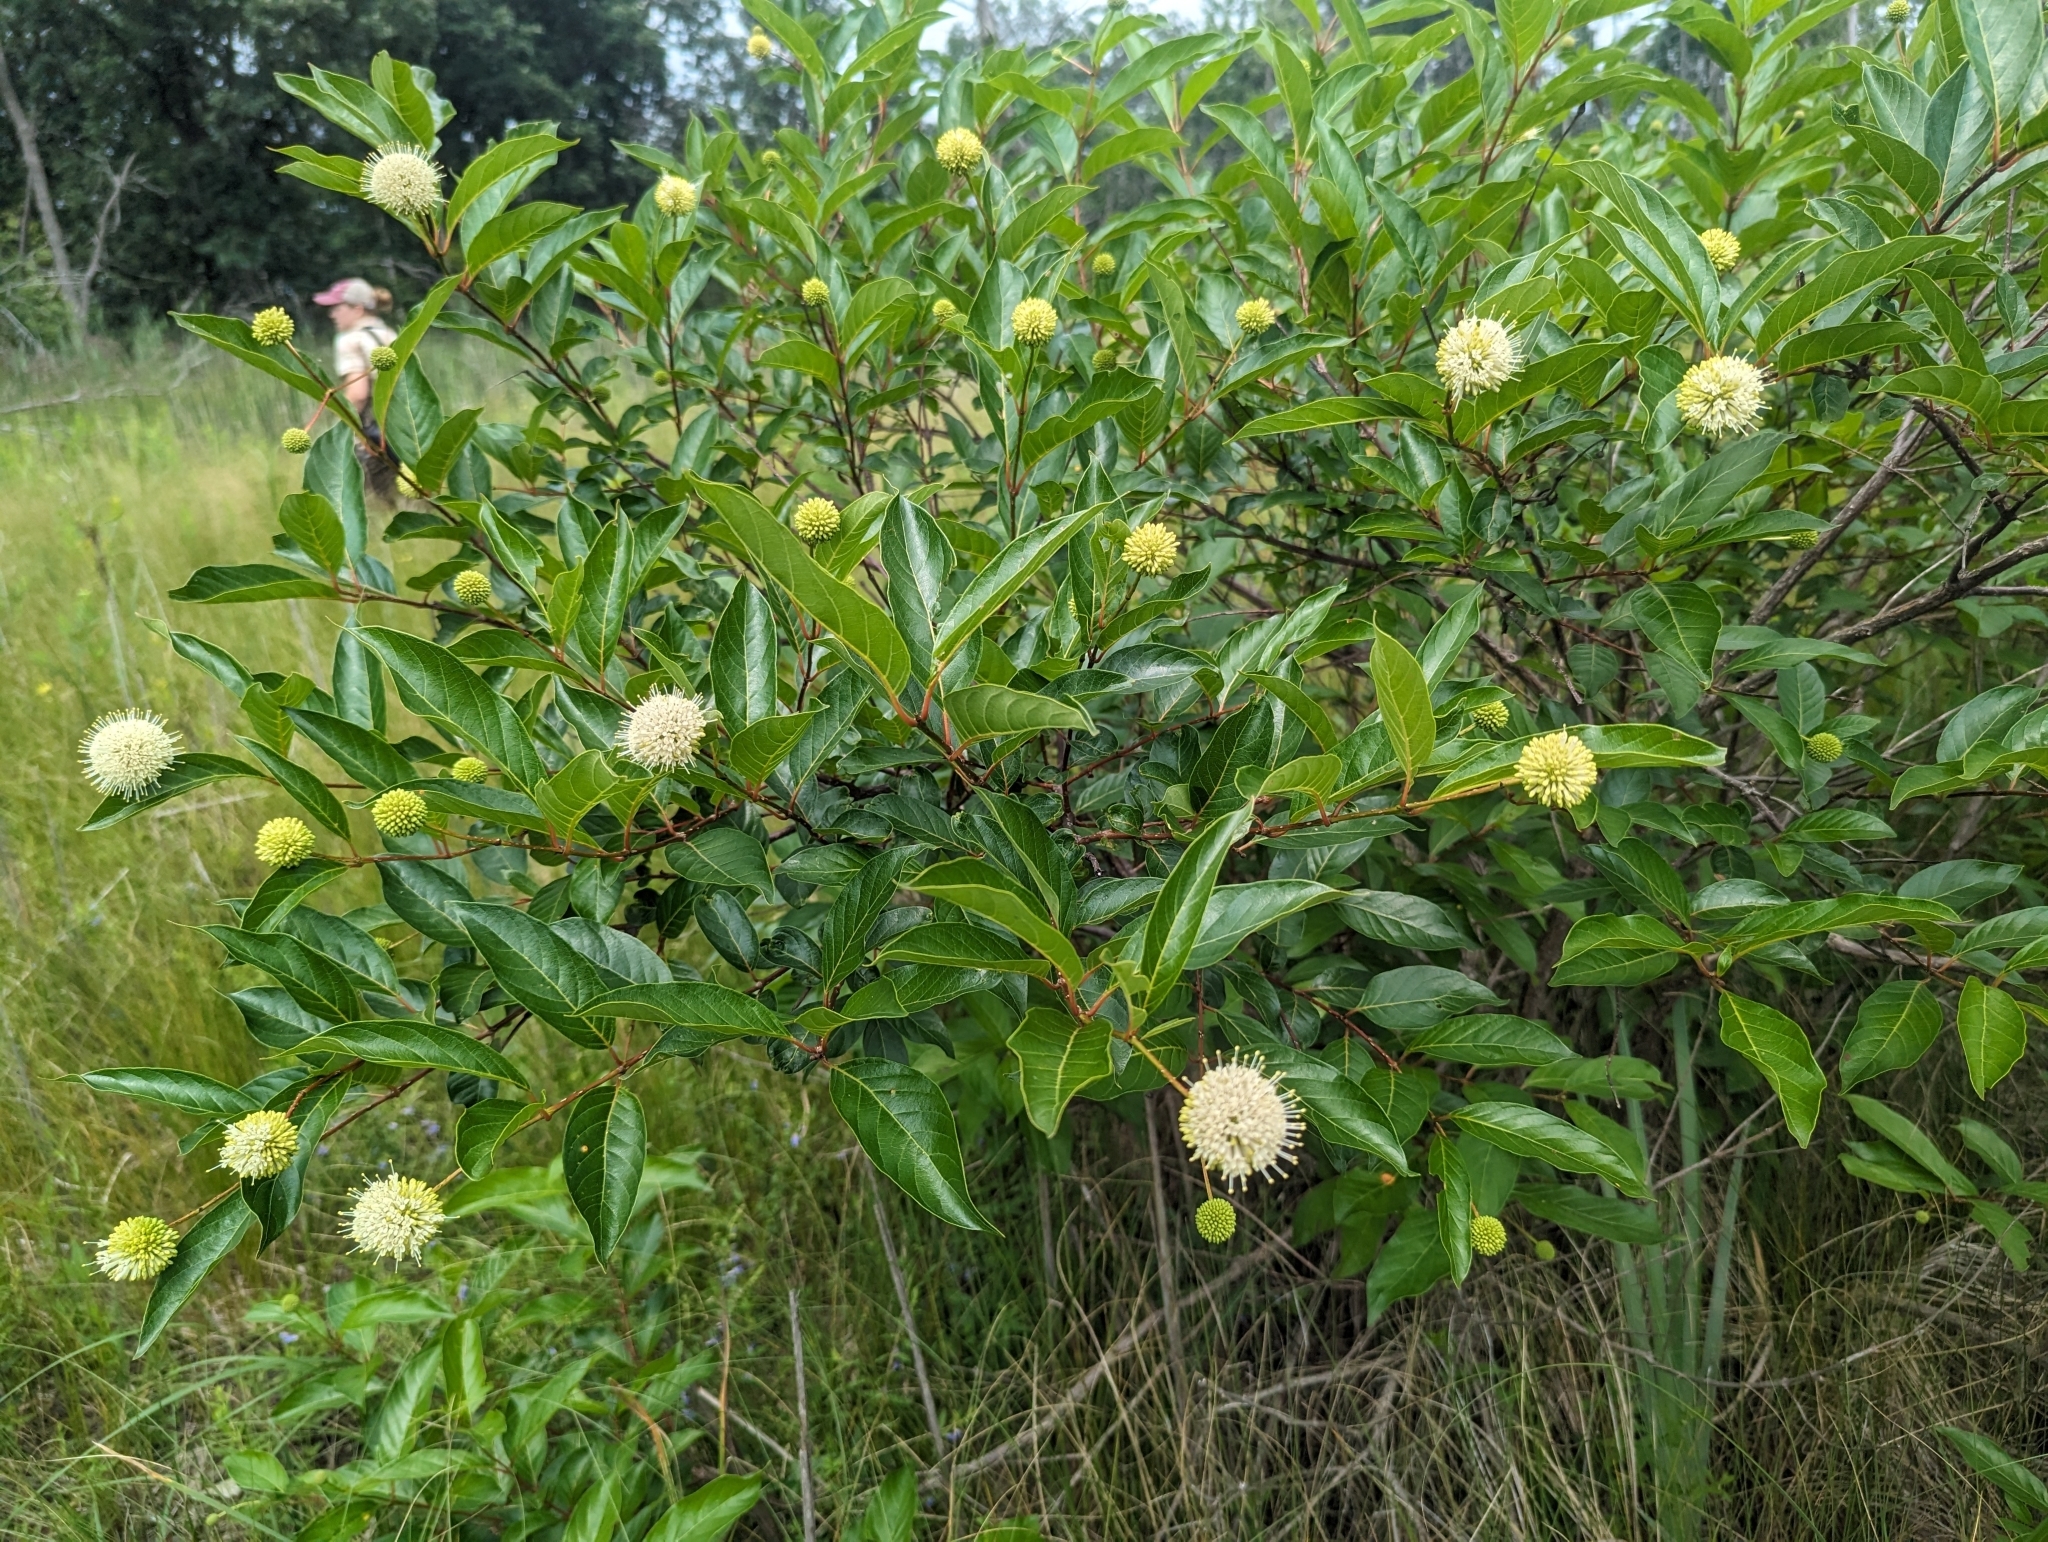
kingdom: Plantae
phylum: Tracheophyta
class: Magnoliopsida
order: Gentianales
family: Rubiaceae
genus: Cephalanthus
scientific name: Cephalanthus occidentalis
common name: Button-willow
